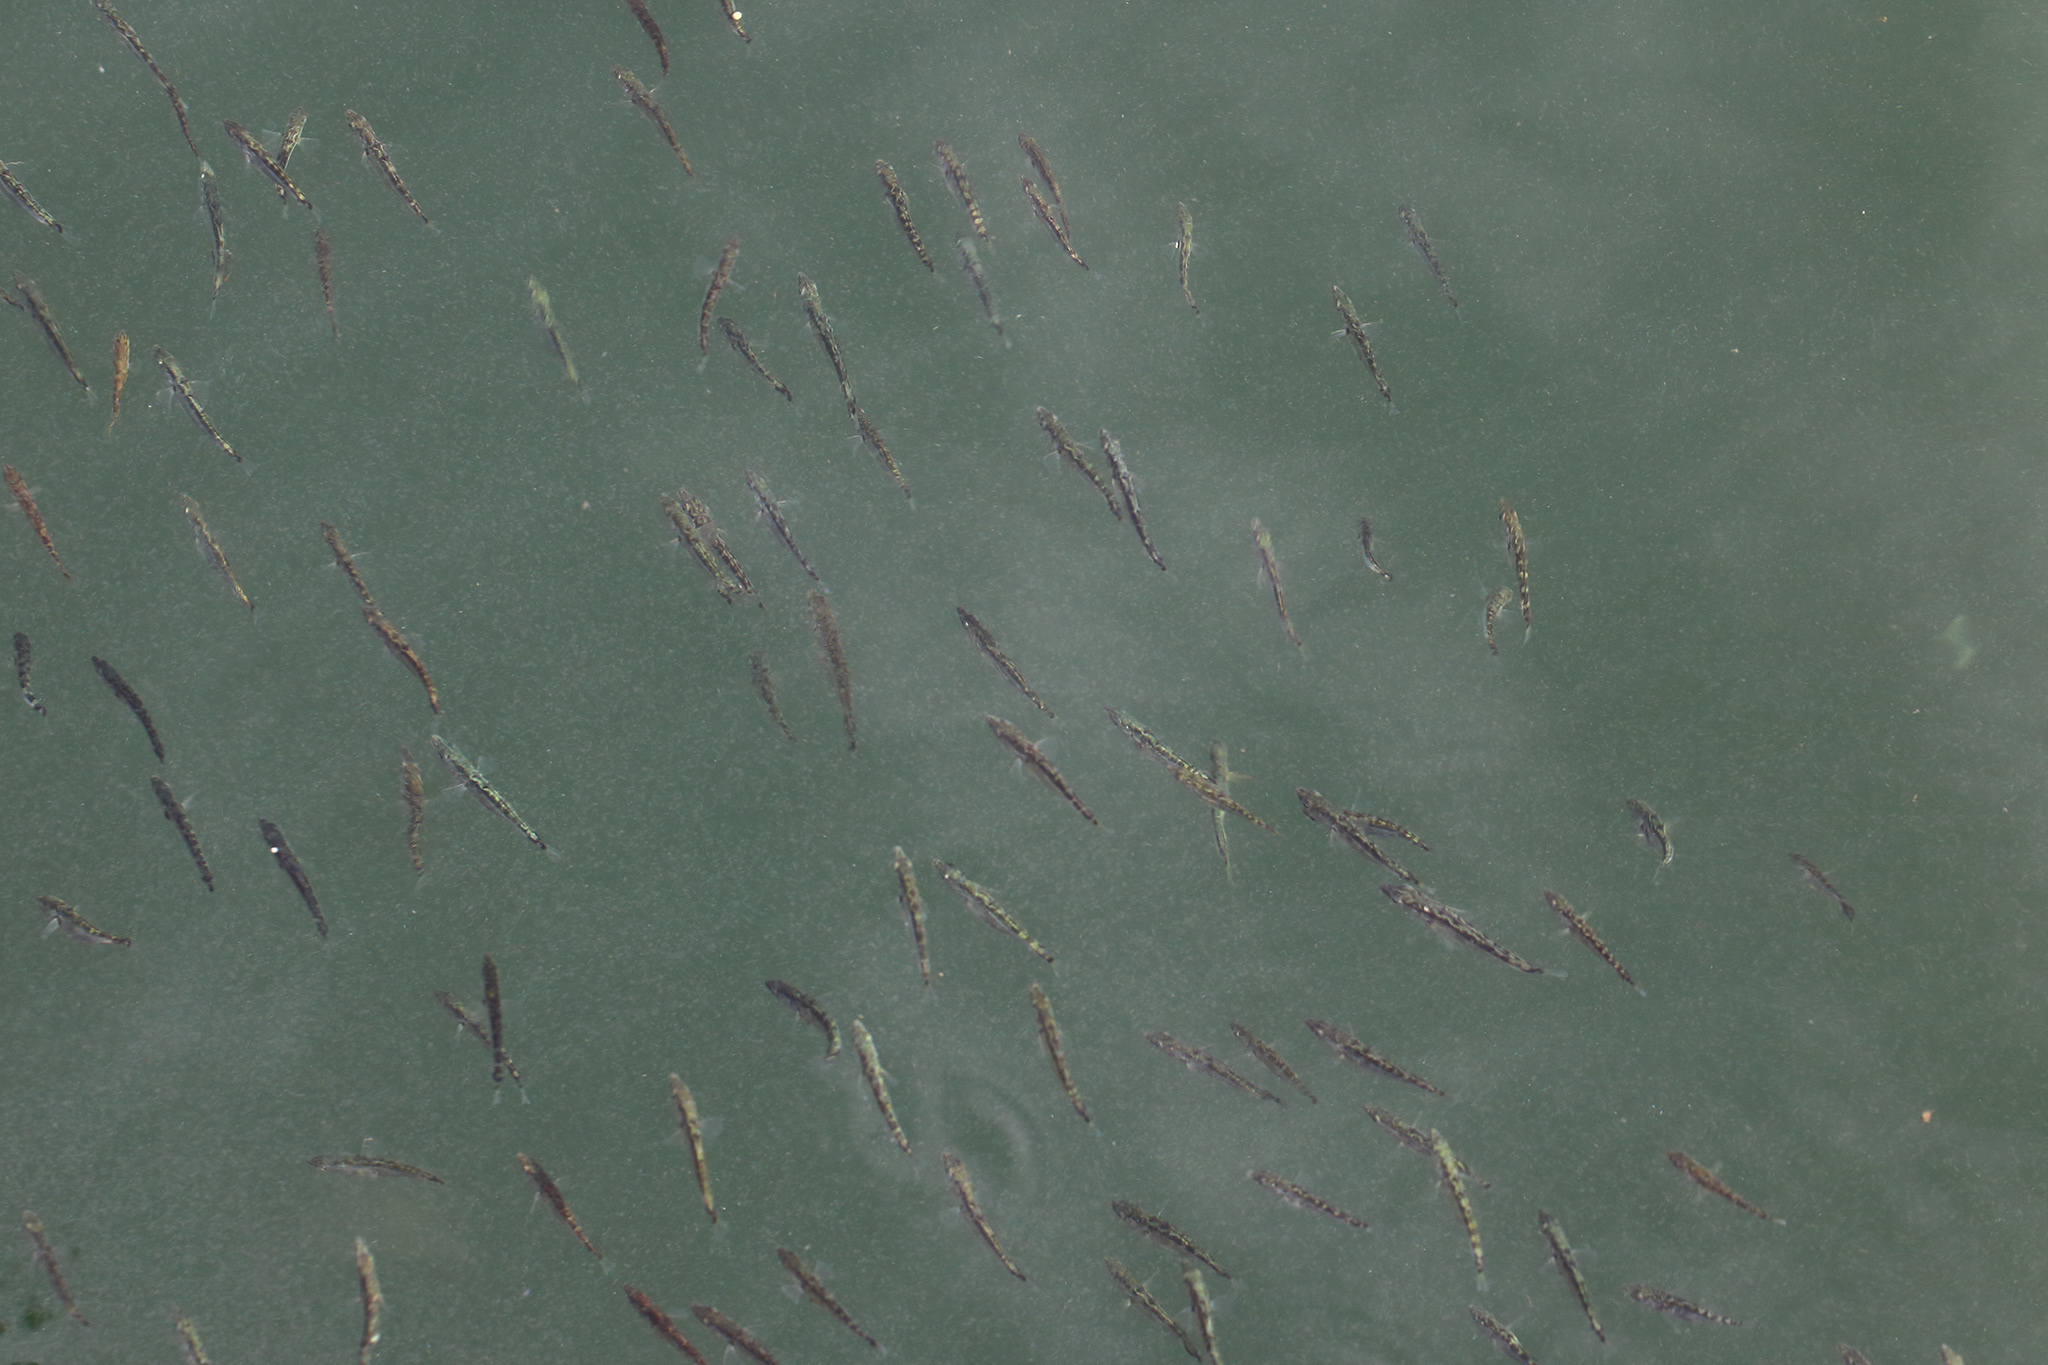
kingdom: Animalia
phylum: Chordata
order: Gasterosteiformes
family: Gasterosteidae
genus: Gasterosteus
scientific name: Gasterosteus aculeatus
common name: Three-spined stickleback
